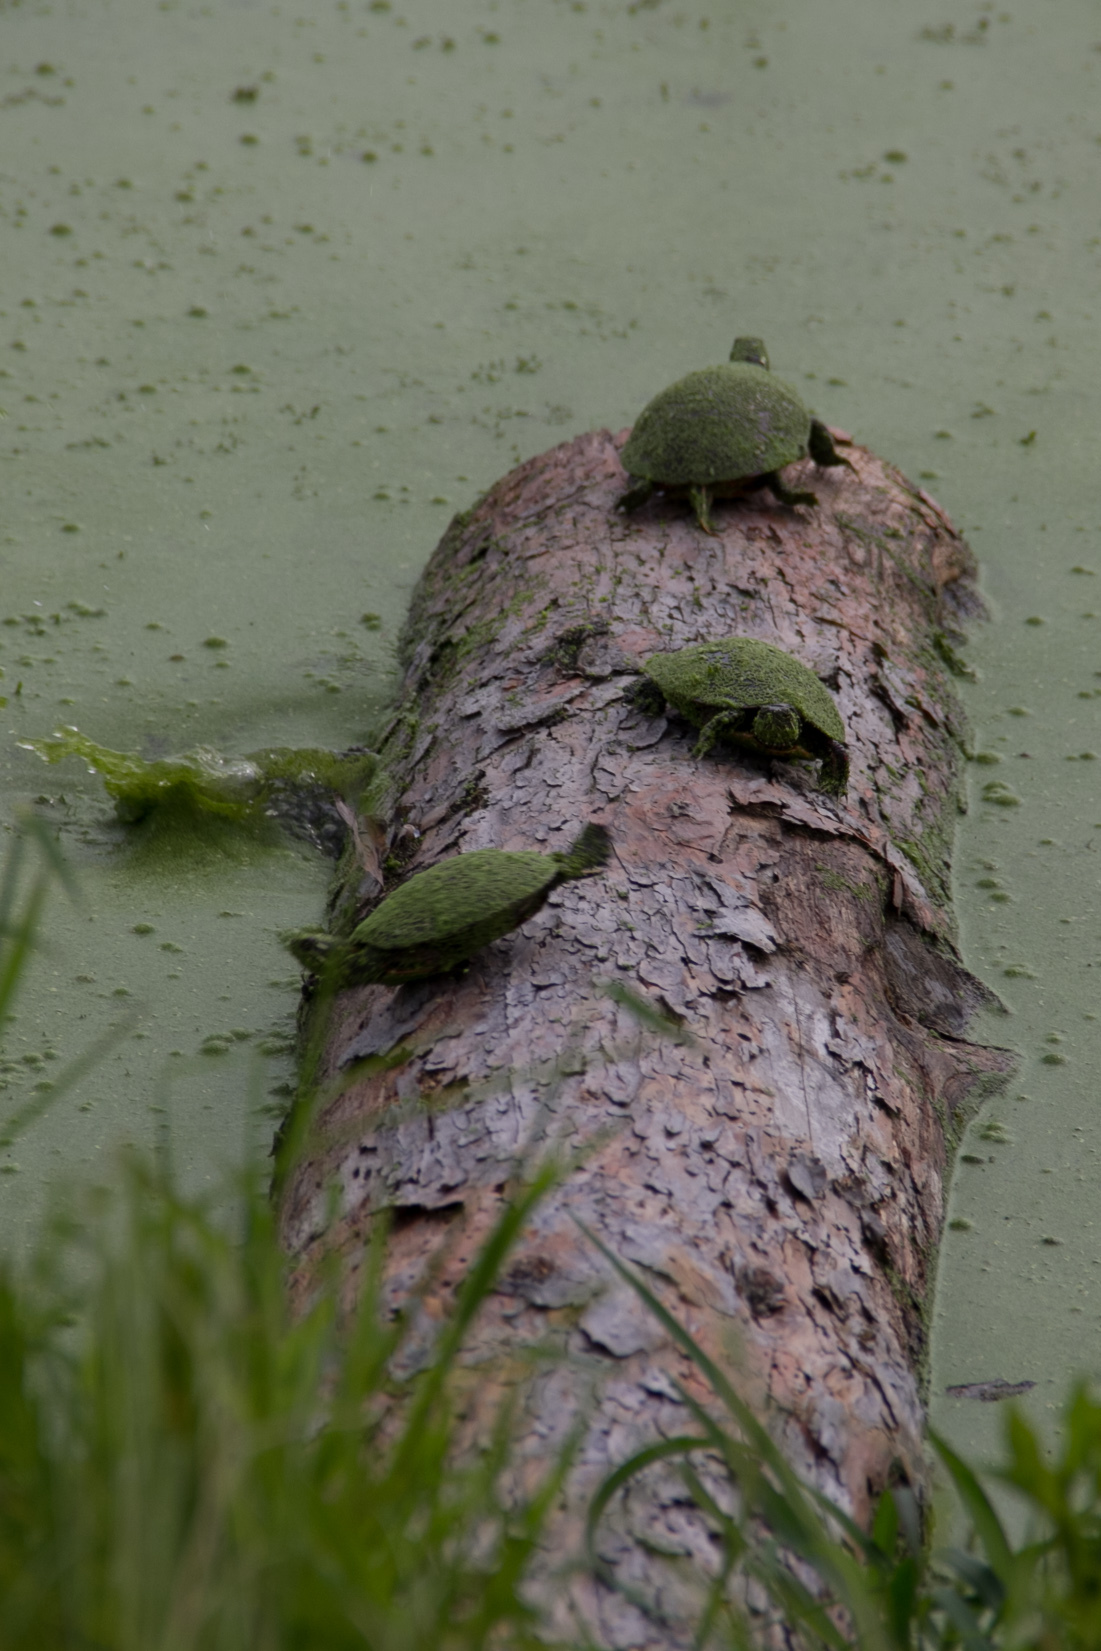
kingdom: Animalia
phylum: Chordata
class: Testudines
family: Emydidae
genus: Chrysemys
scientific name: Chrysemys picta
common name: Painted turtle
